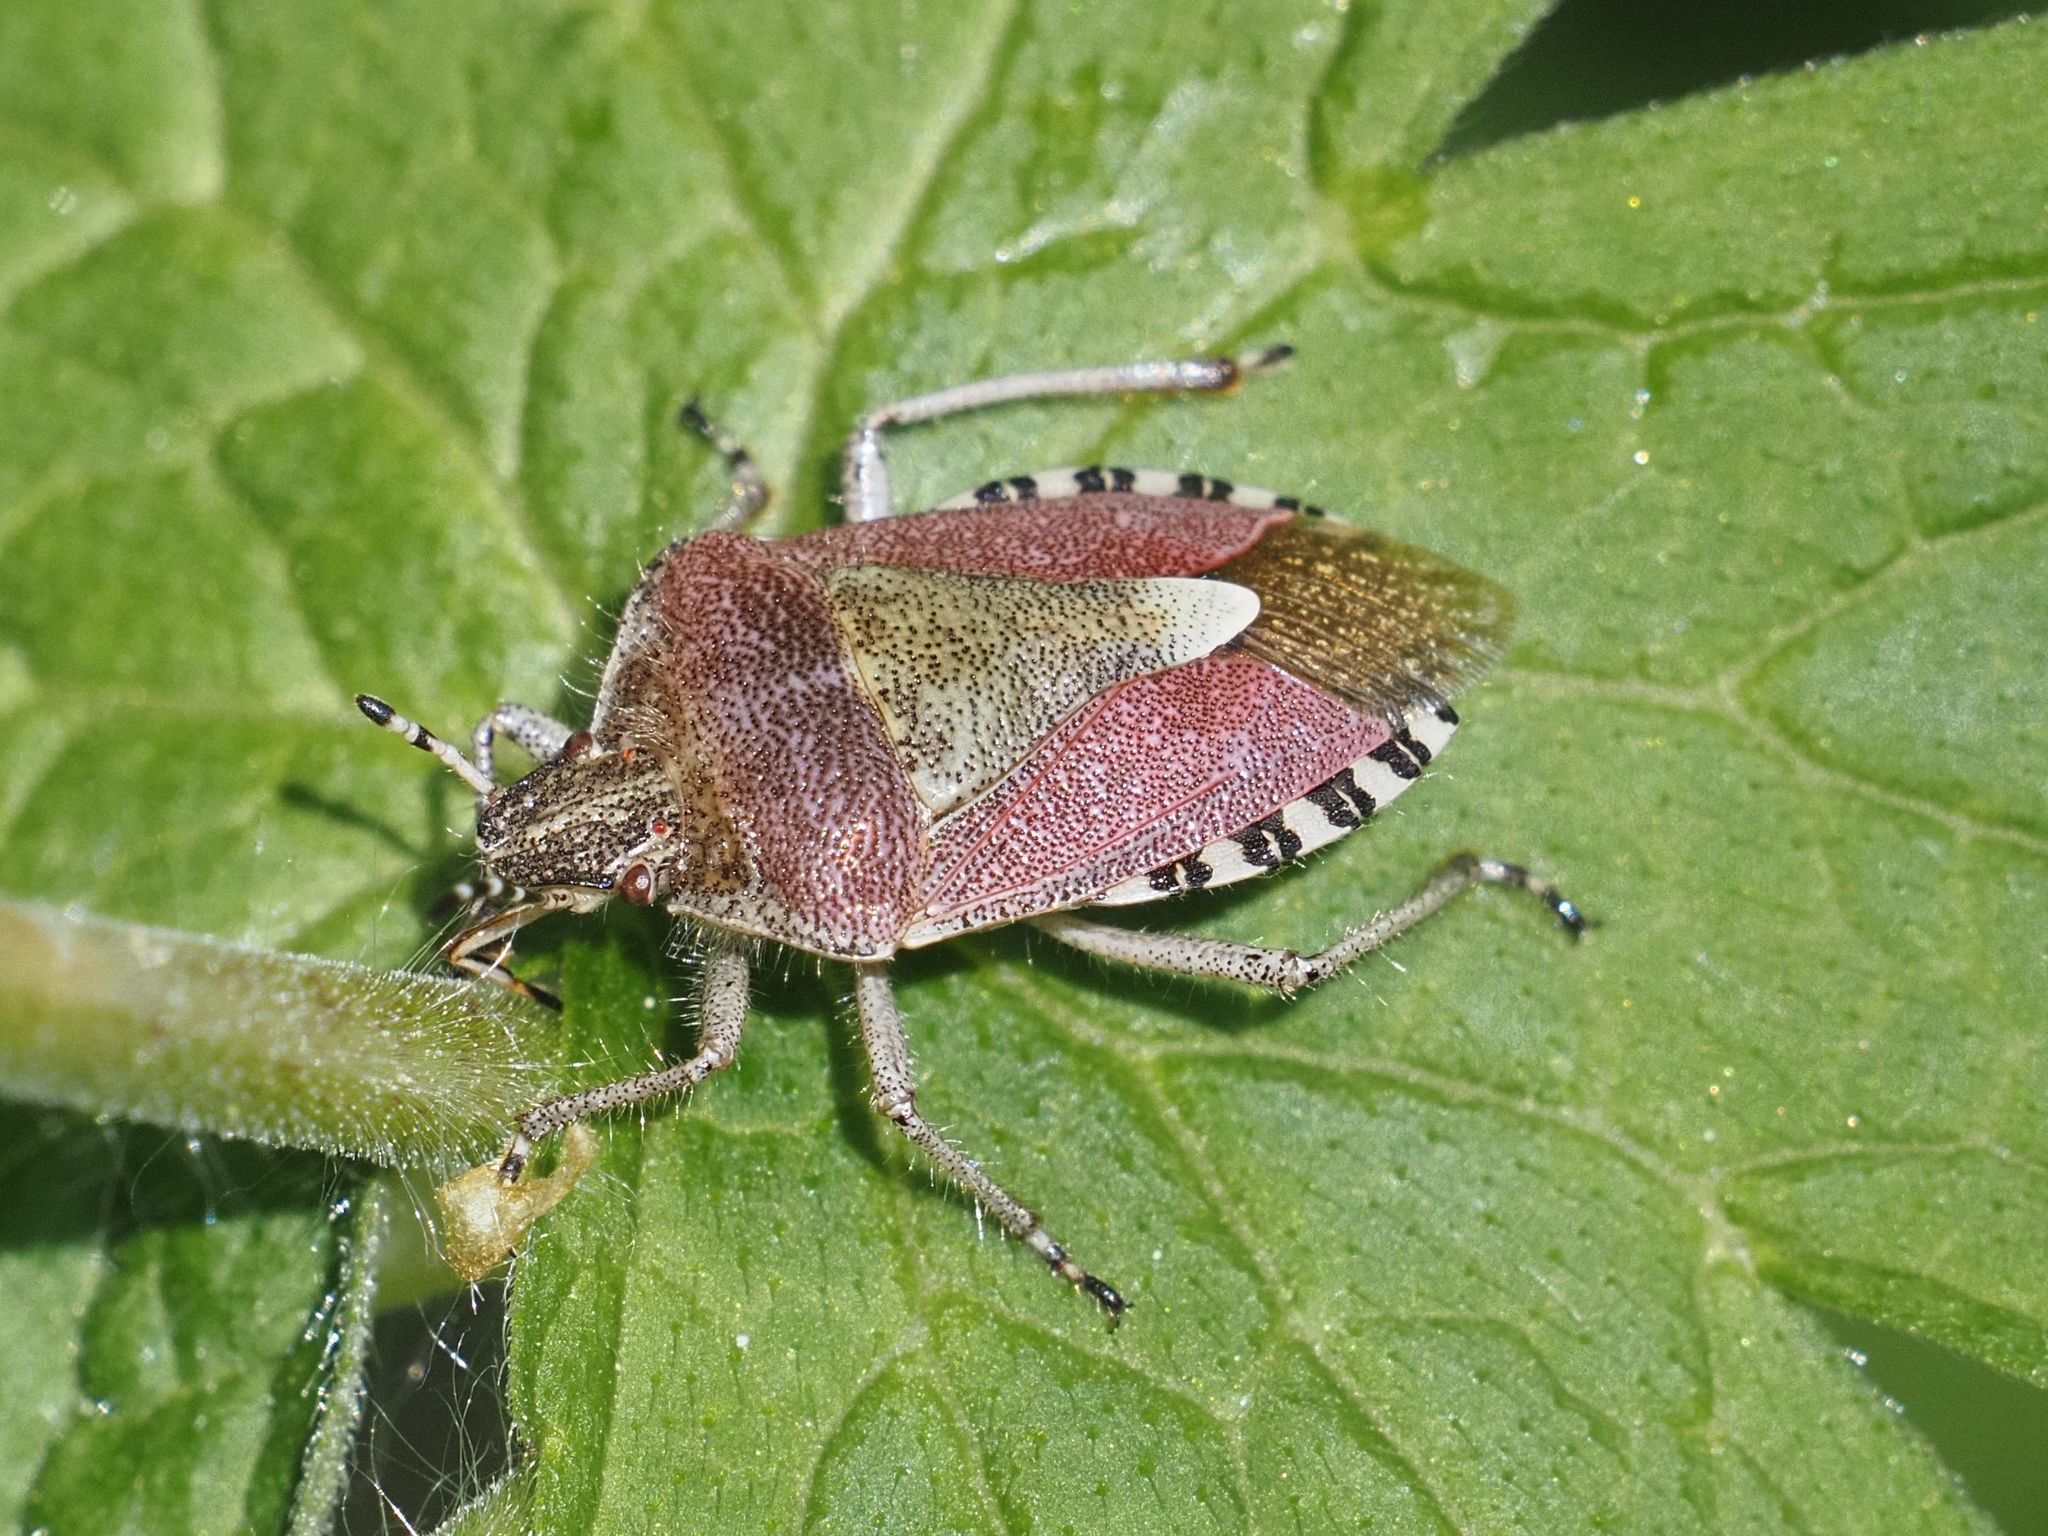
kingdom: Animalia
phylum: Arthropoda
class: Insecta
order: Hemiptera
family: Pentatomidae
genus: Dolycoris
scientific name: Dolycoris baccarum
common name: Sloe bug
